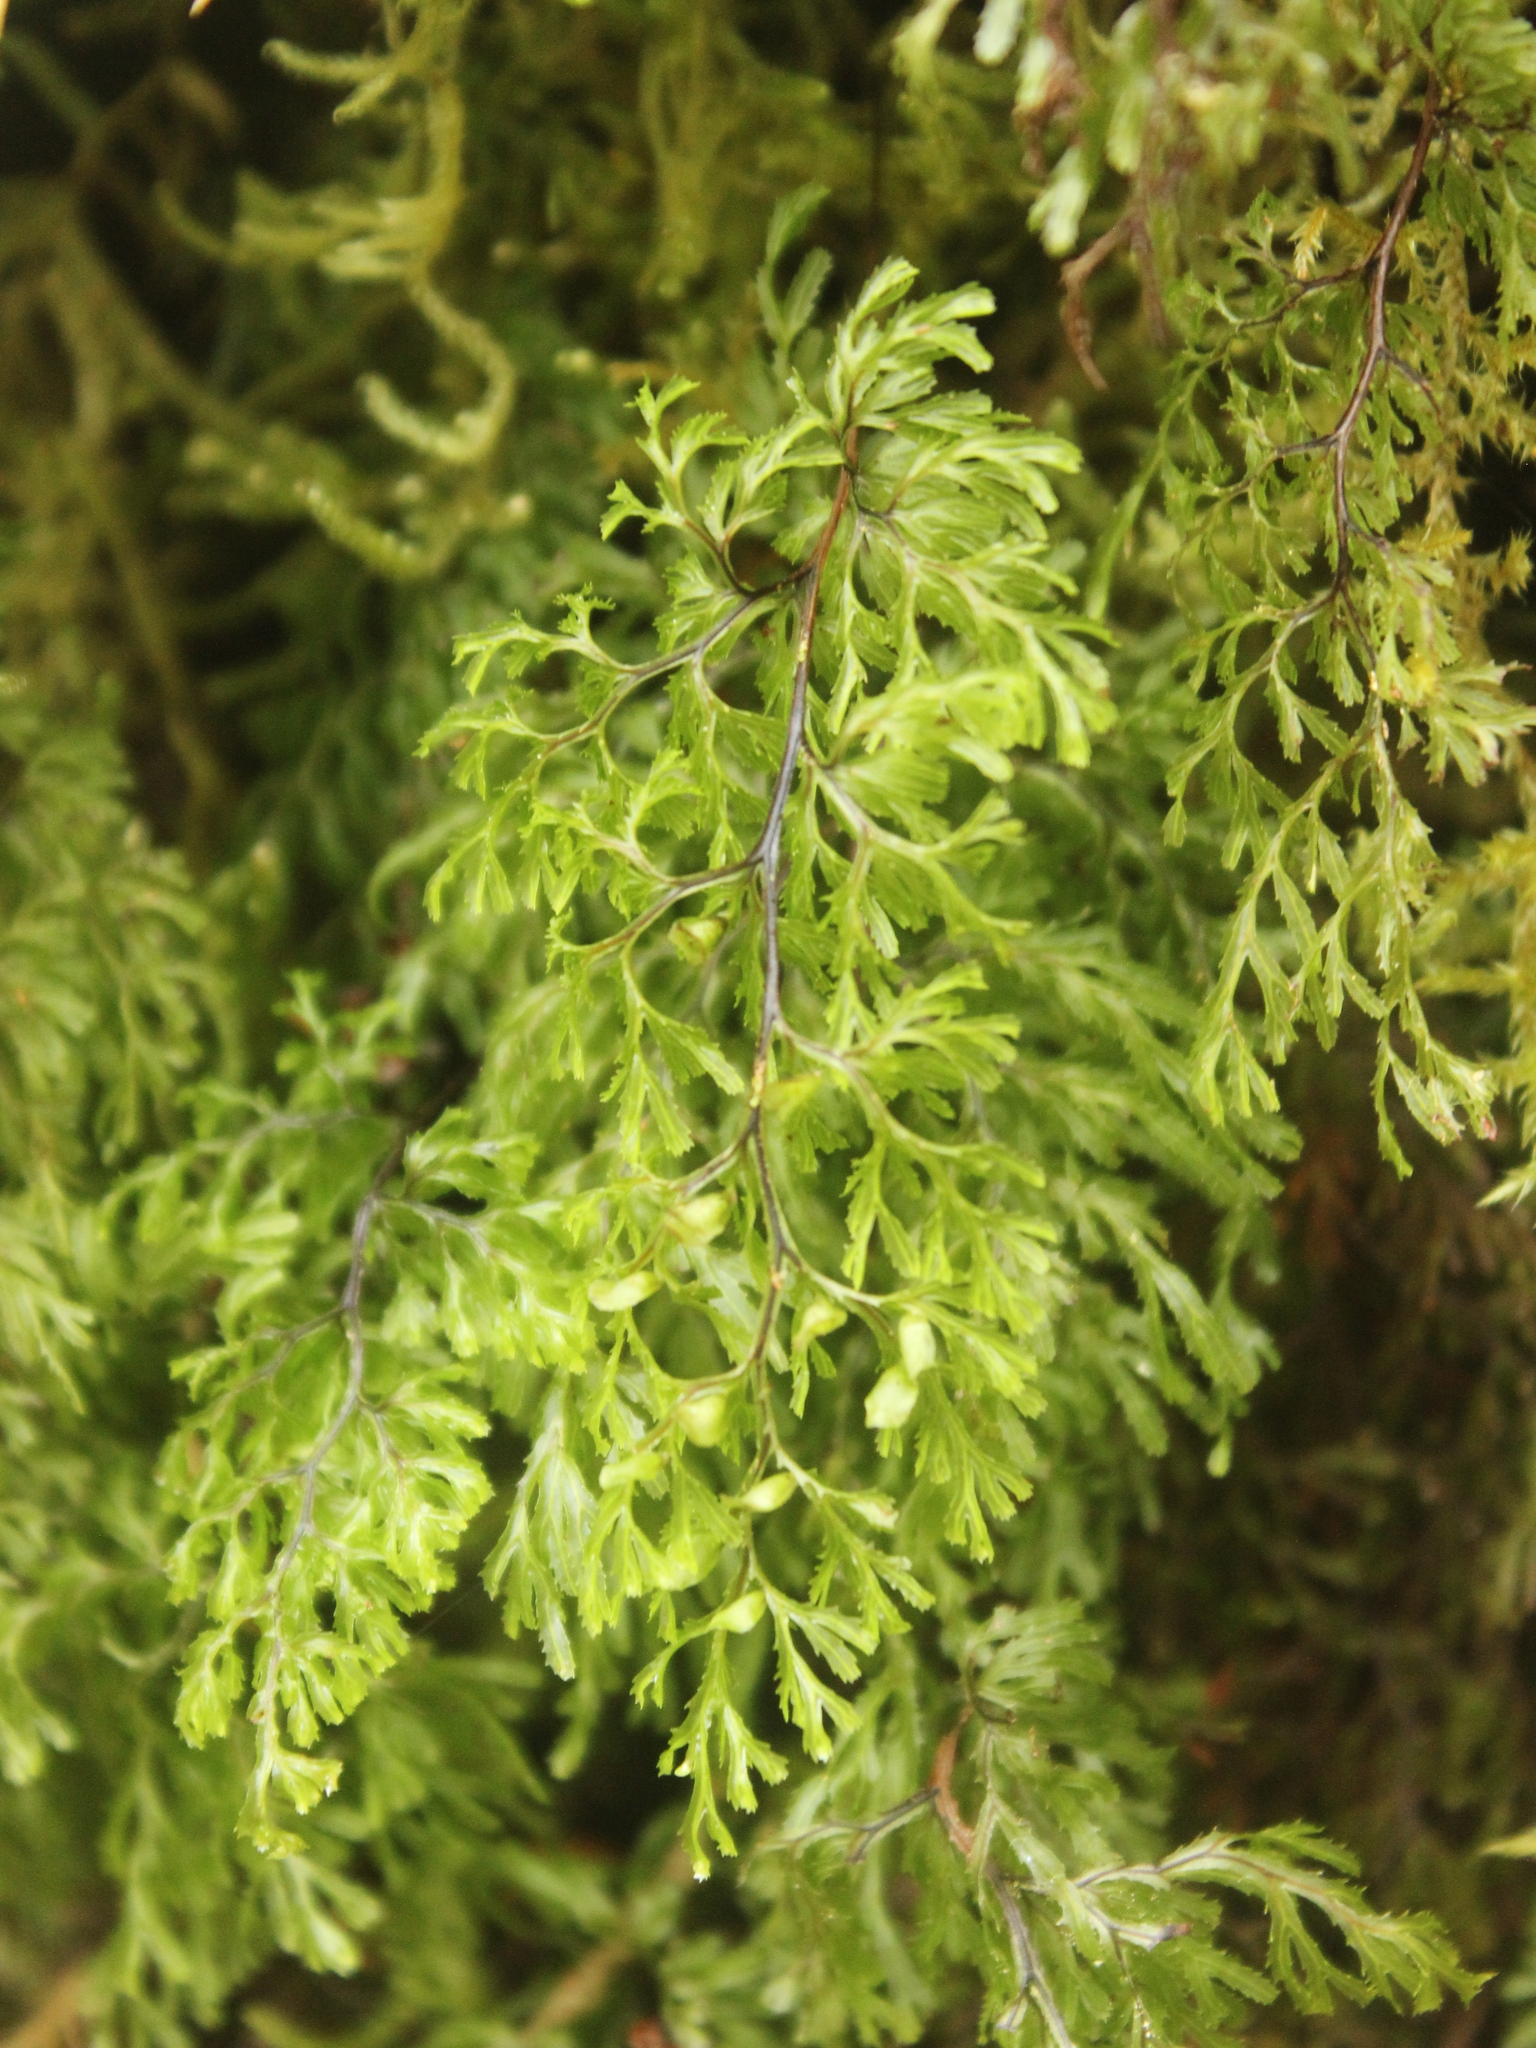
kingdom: Plantae
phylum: Tracheophyta
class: Polypodiopsida
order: Hymenophyllales
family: Hymenophyllaceae
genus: Hymenophyllum
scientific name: Hymenophyllum bivalve
